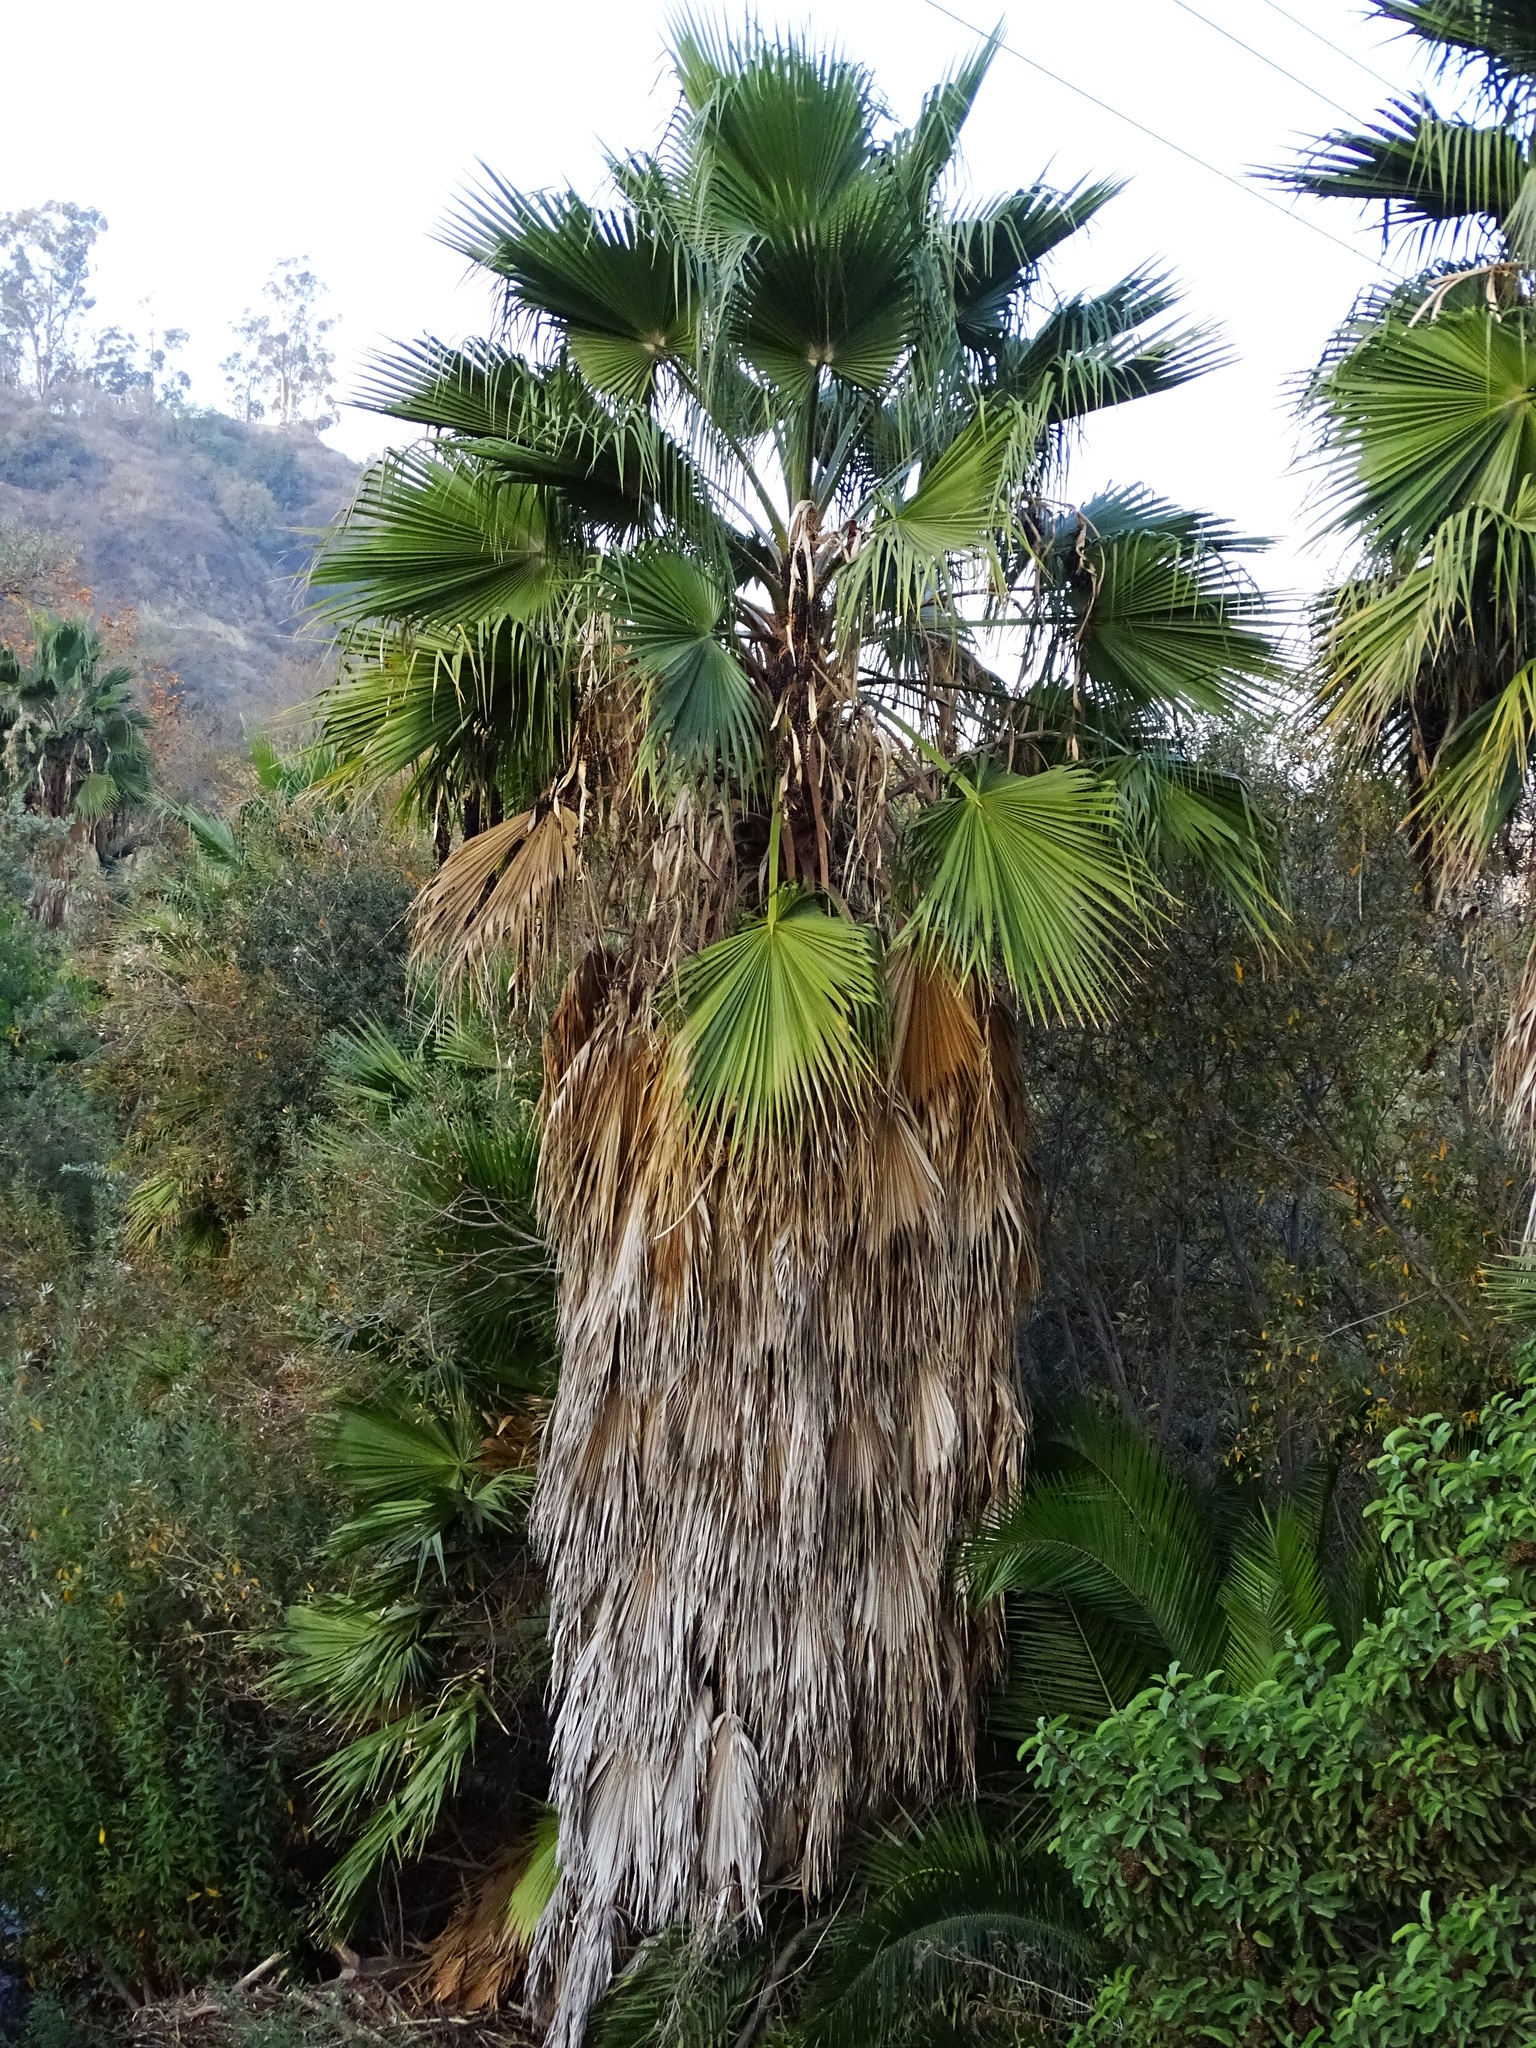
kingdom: Plantae
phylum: Tracheophyta
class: Liliopsida
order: Arecales
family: Arecaceae
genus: Washingtonia
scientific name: Washingtonia robusta
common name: Mexican fan palm
